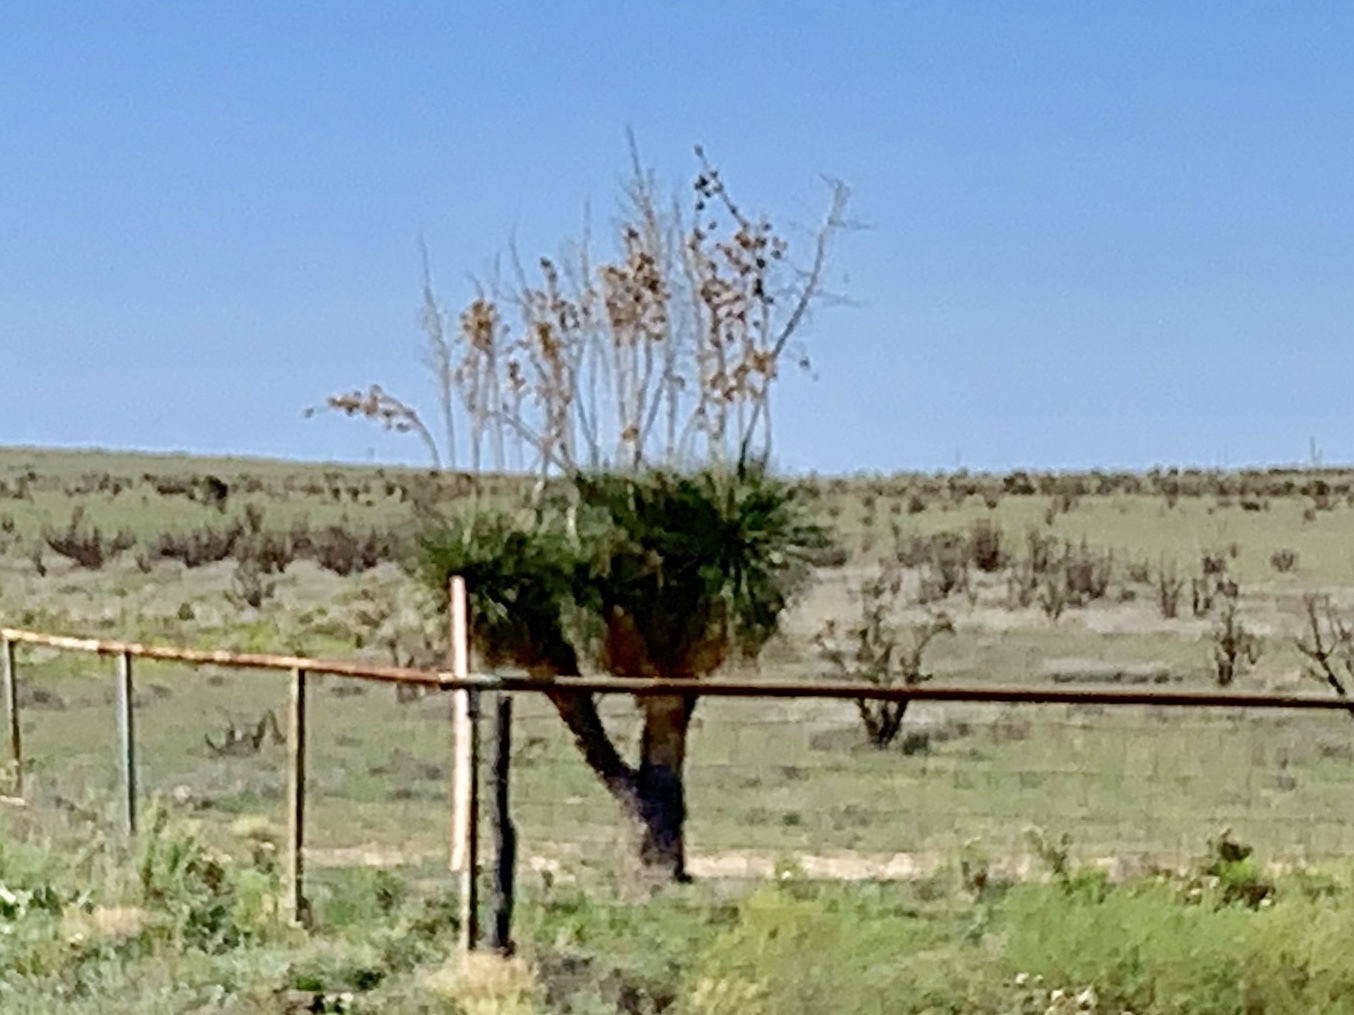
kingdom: Plantae
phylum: Tracheophyta
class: Liliopsida
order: Asparagales
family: Asparagaceae
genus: Yucca
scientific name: Yucca elata
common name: Palmella
